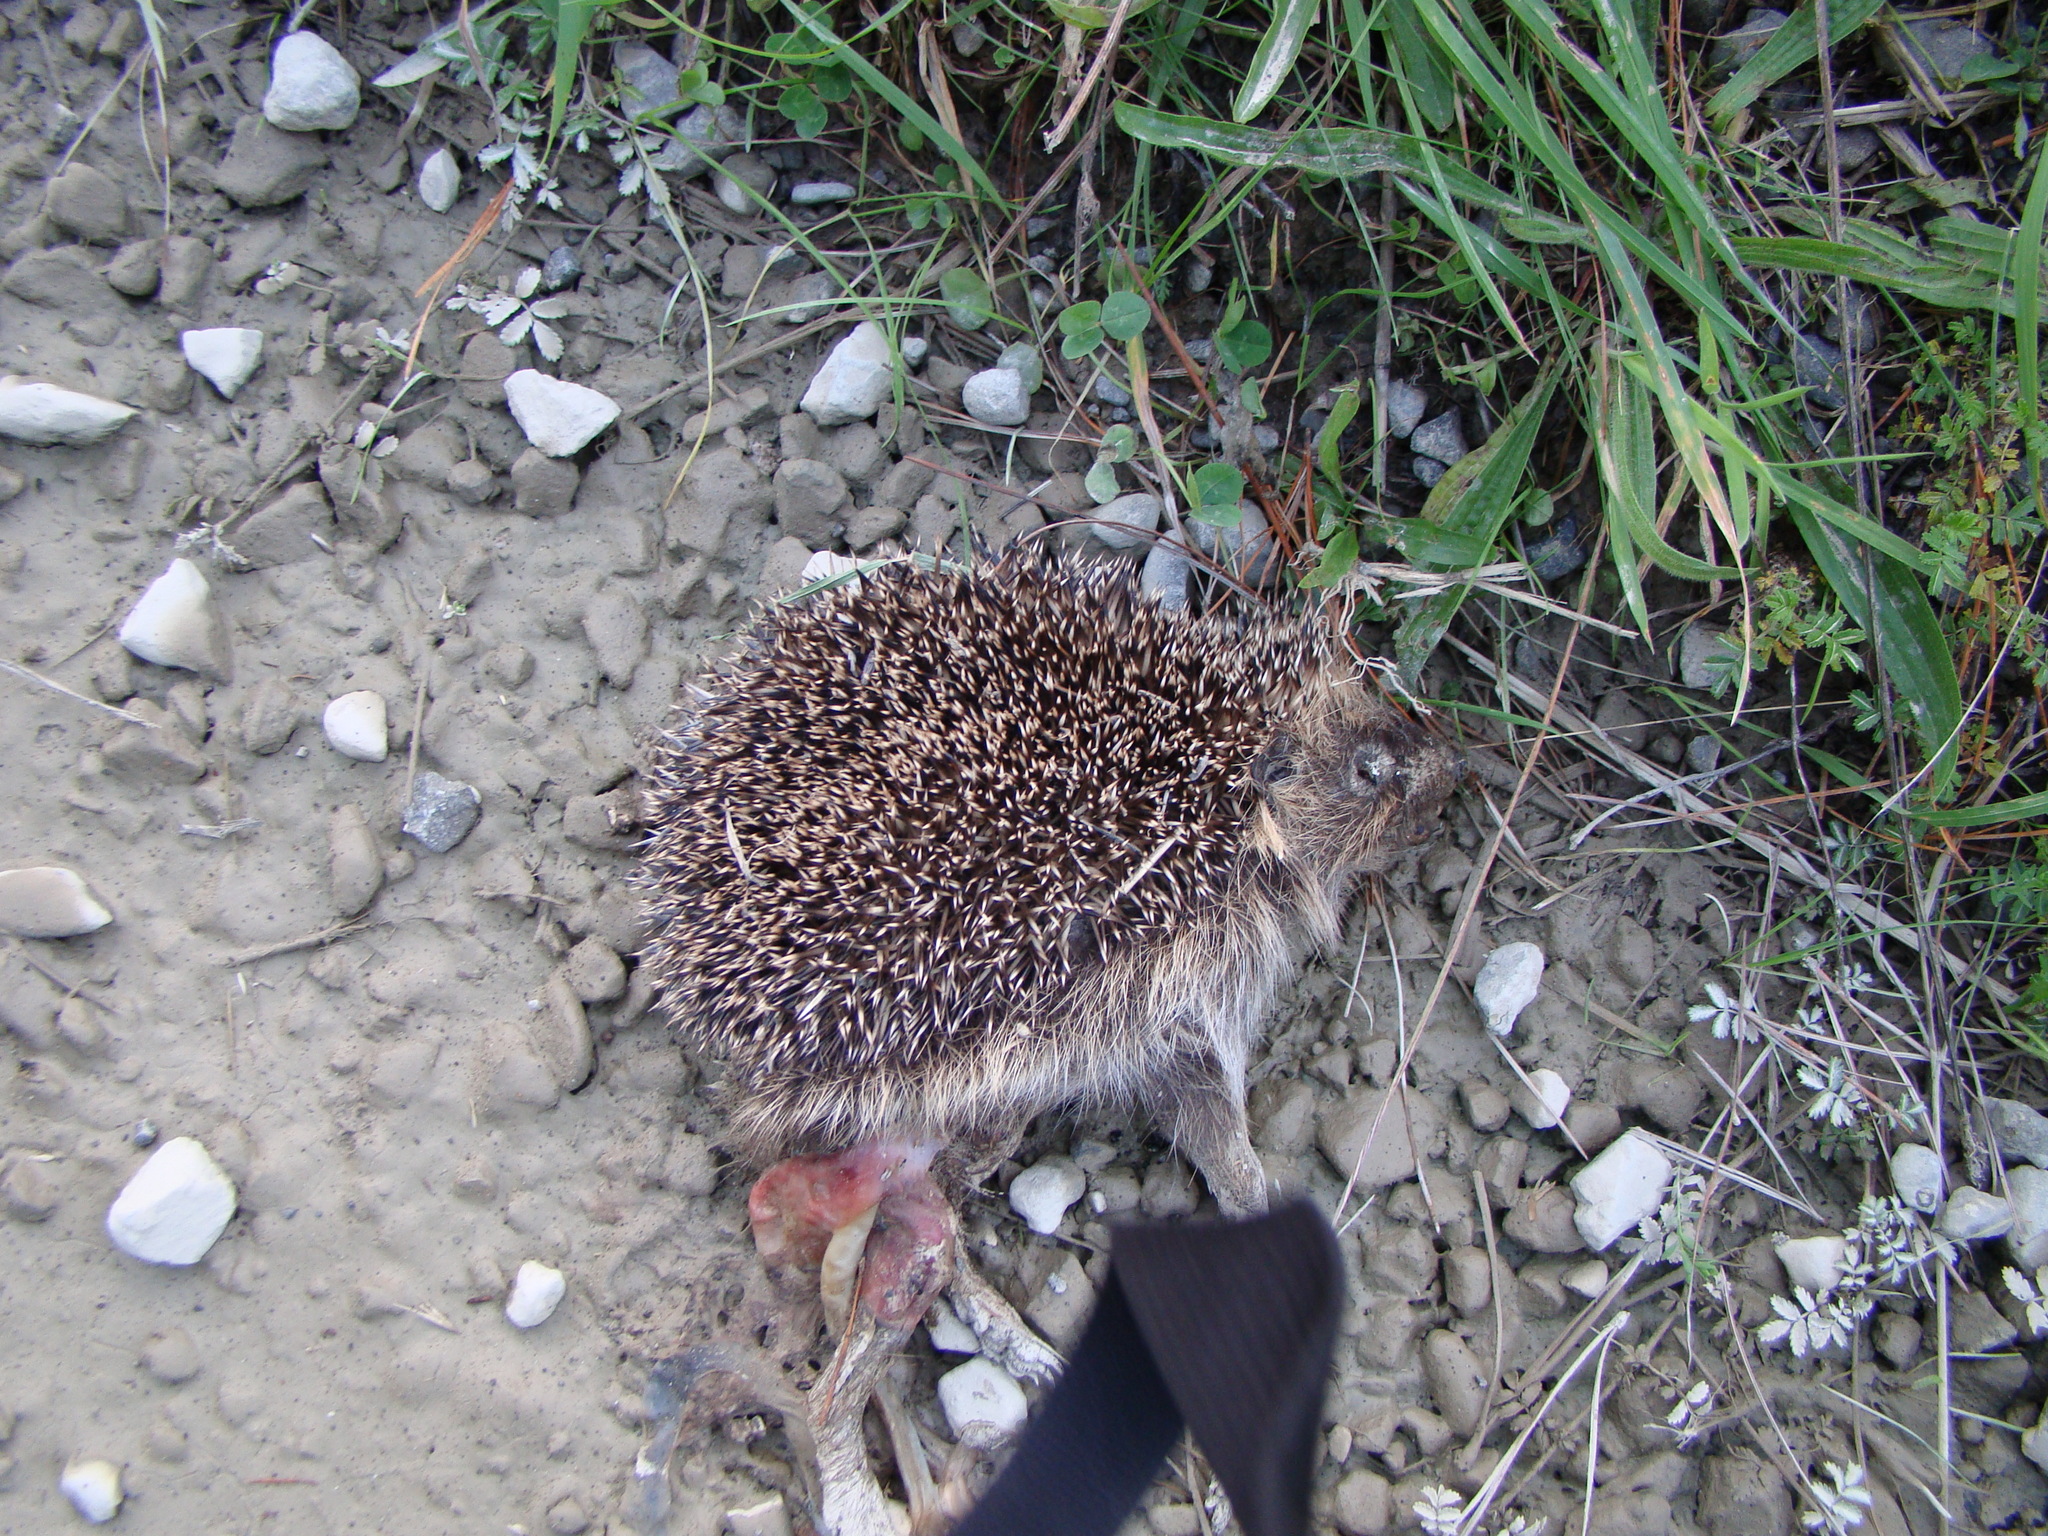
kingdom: Animalia
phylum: Chordata
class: Mammalia
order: Erinaceomorpha
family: Erinaceidae
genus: Erinaceus
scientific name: Erinaceus europaeus
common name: West european hedgehog
